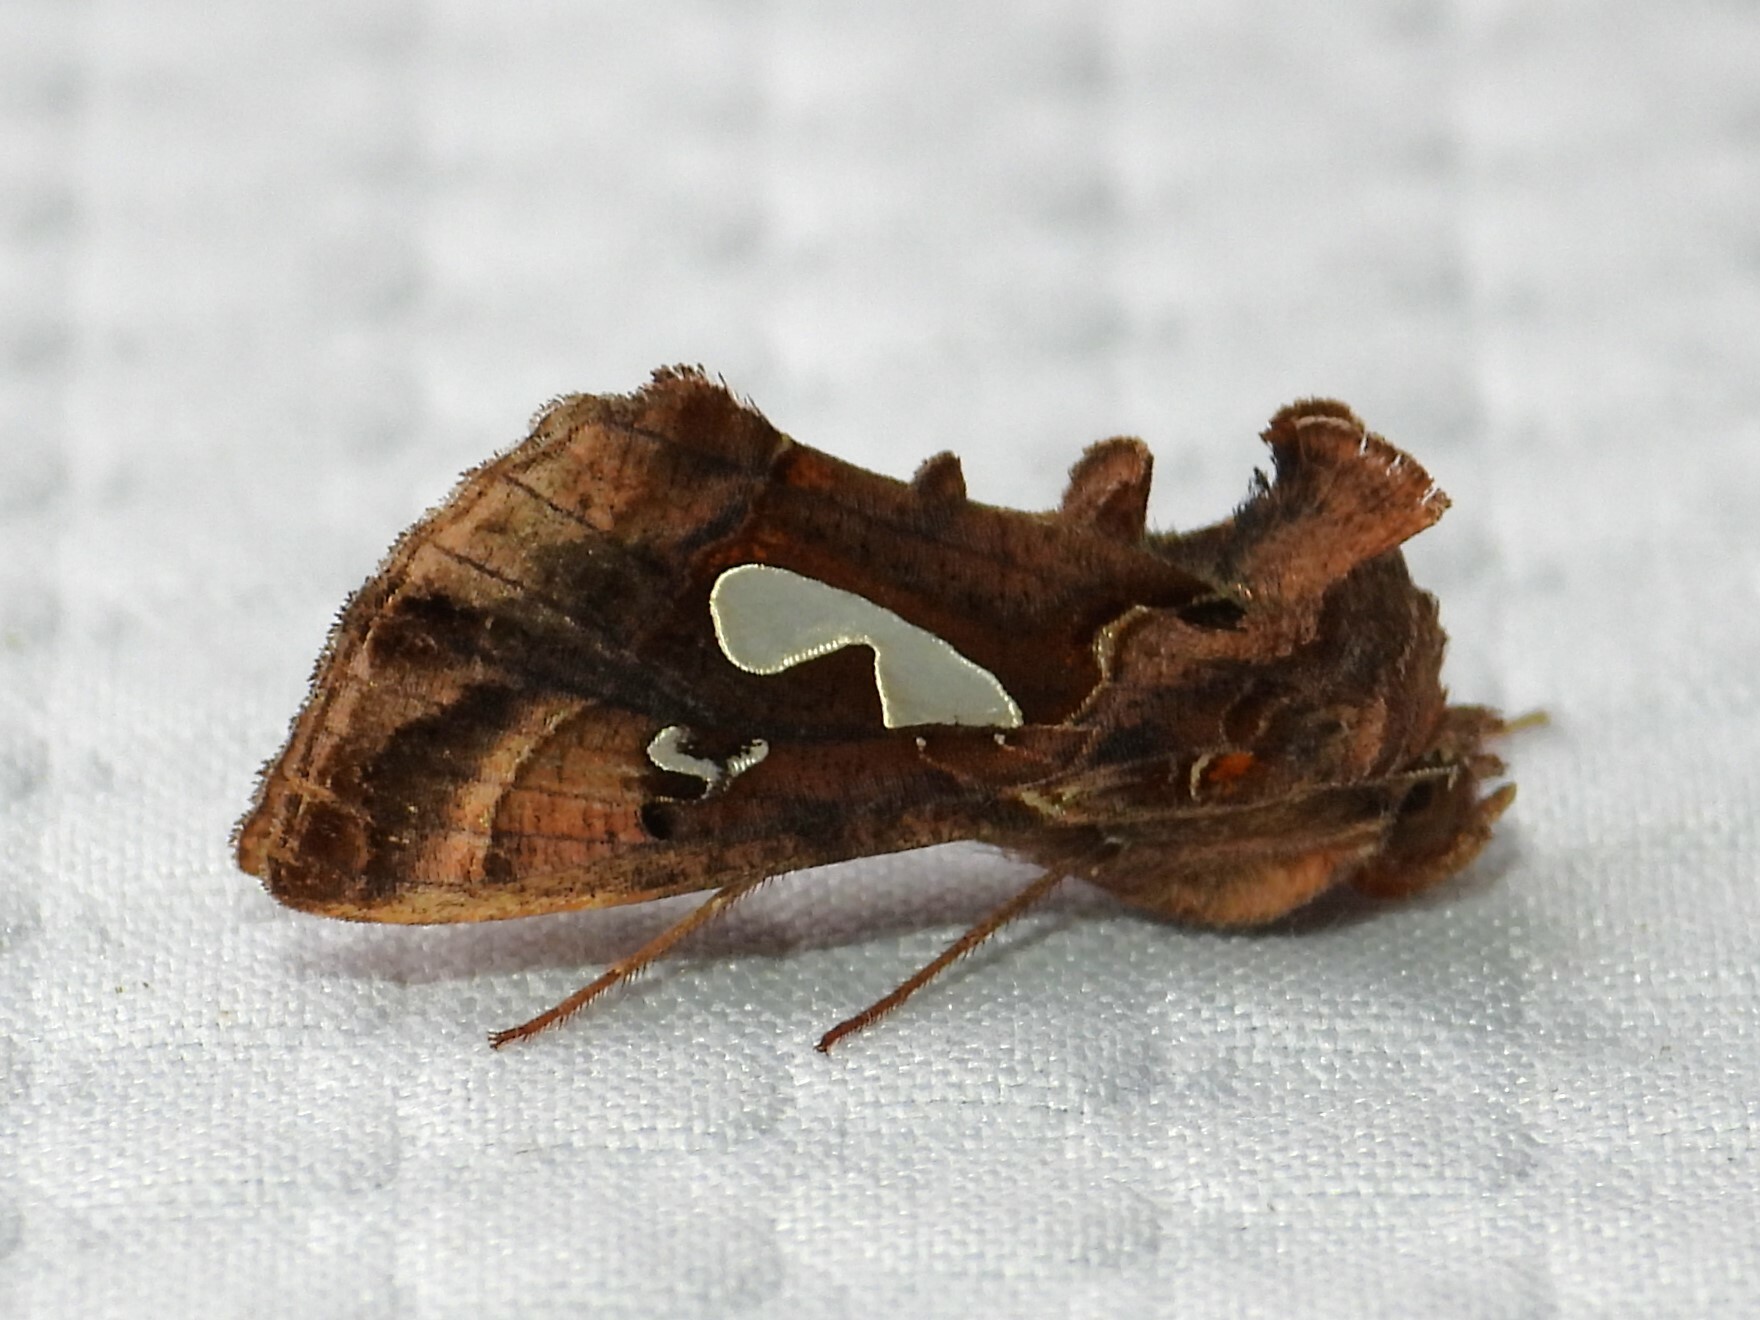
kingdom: Animalia
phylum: Arthropoda
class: Insecta
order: Lepidoptera
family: Noctuidae
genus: Megalographa
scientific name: Megalographa biloba
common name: Cutworm
